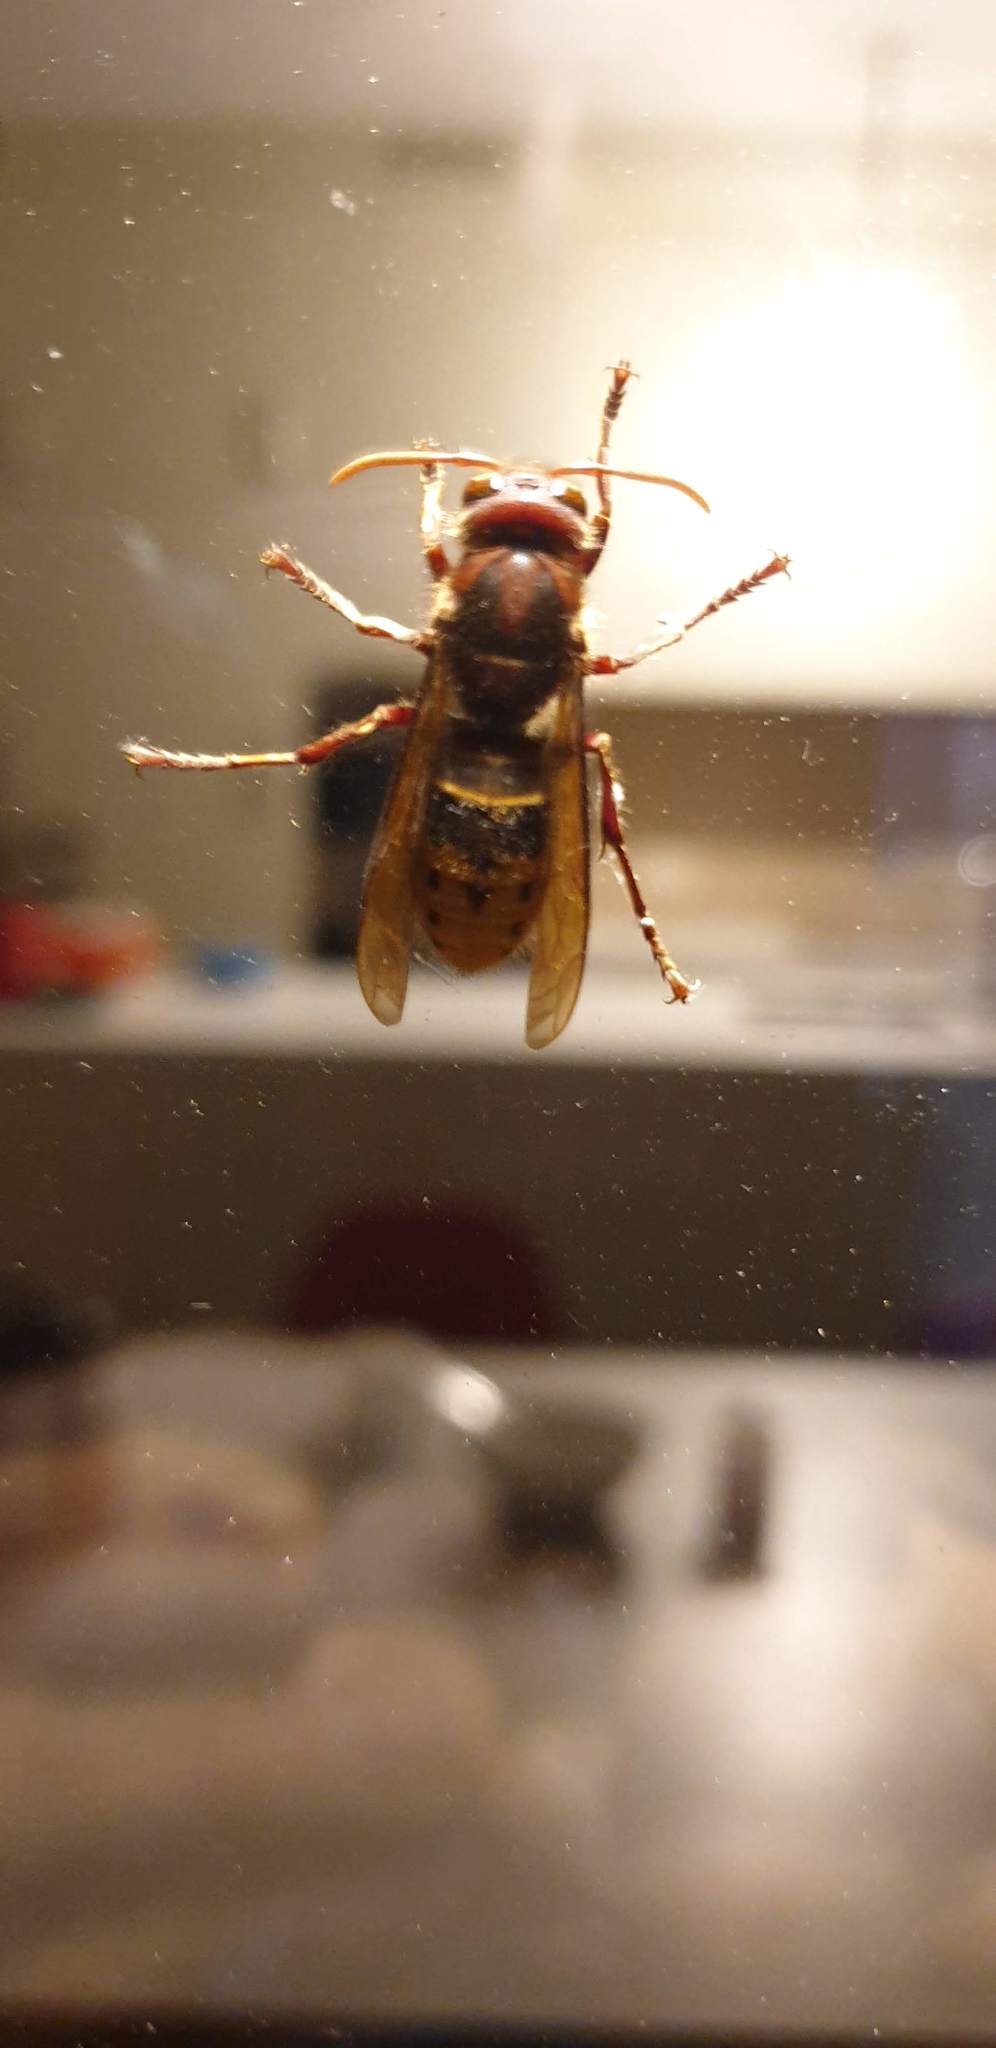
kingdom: Animalia
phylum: Arthropoda
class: Insecta
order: Hymenoptera
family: Vespidae
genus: Vespa
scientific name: Vespa crabro
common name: Hornet
